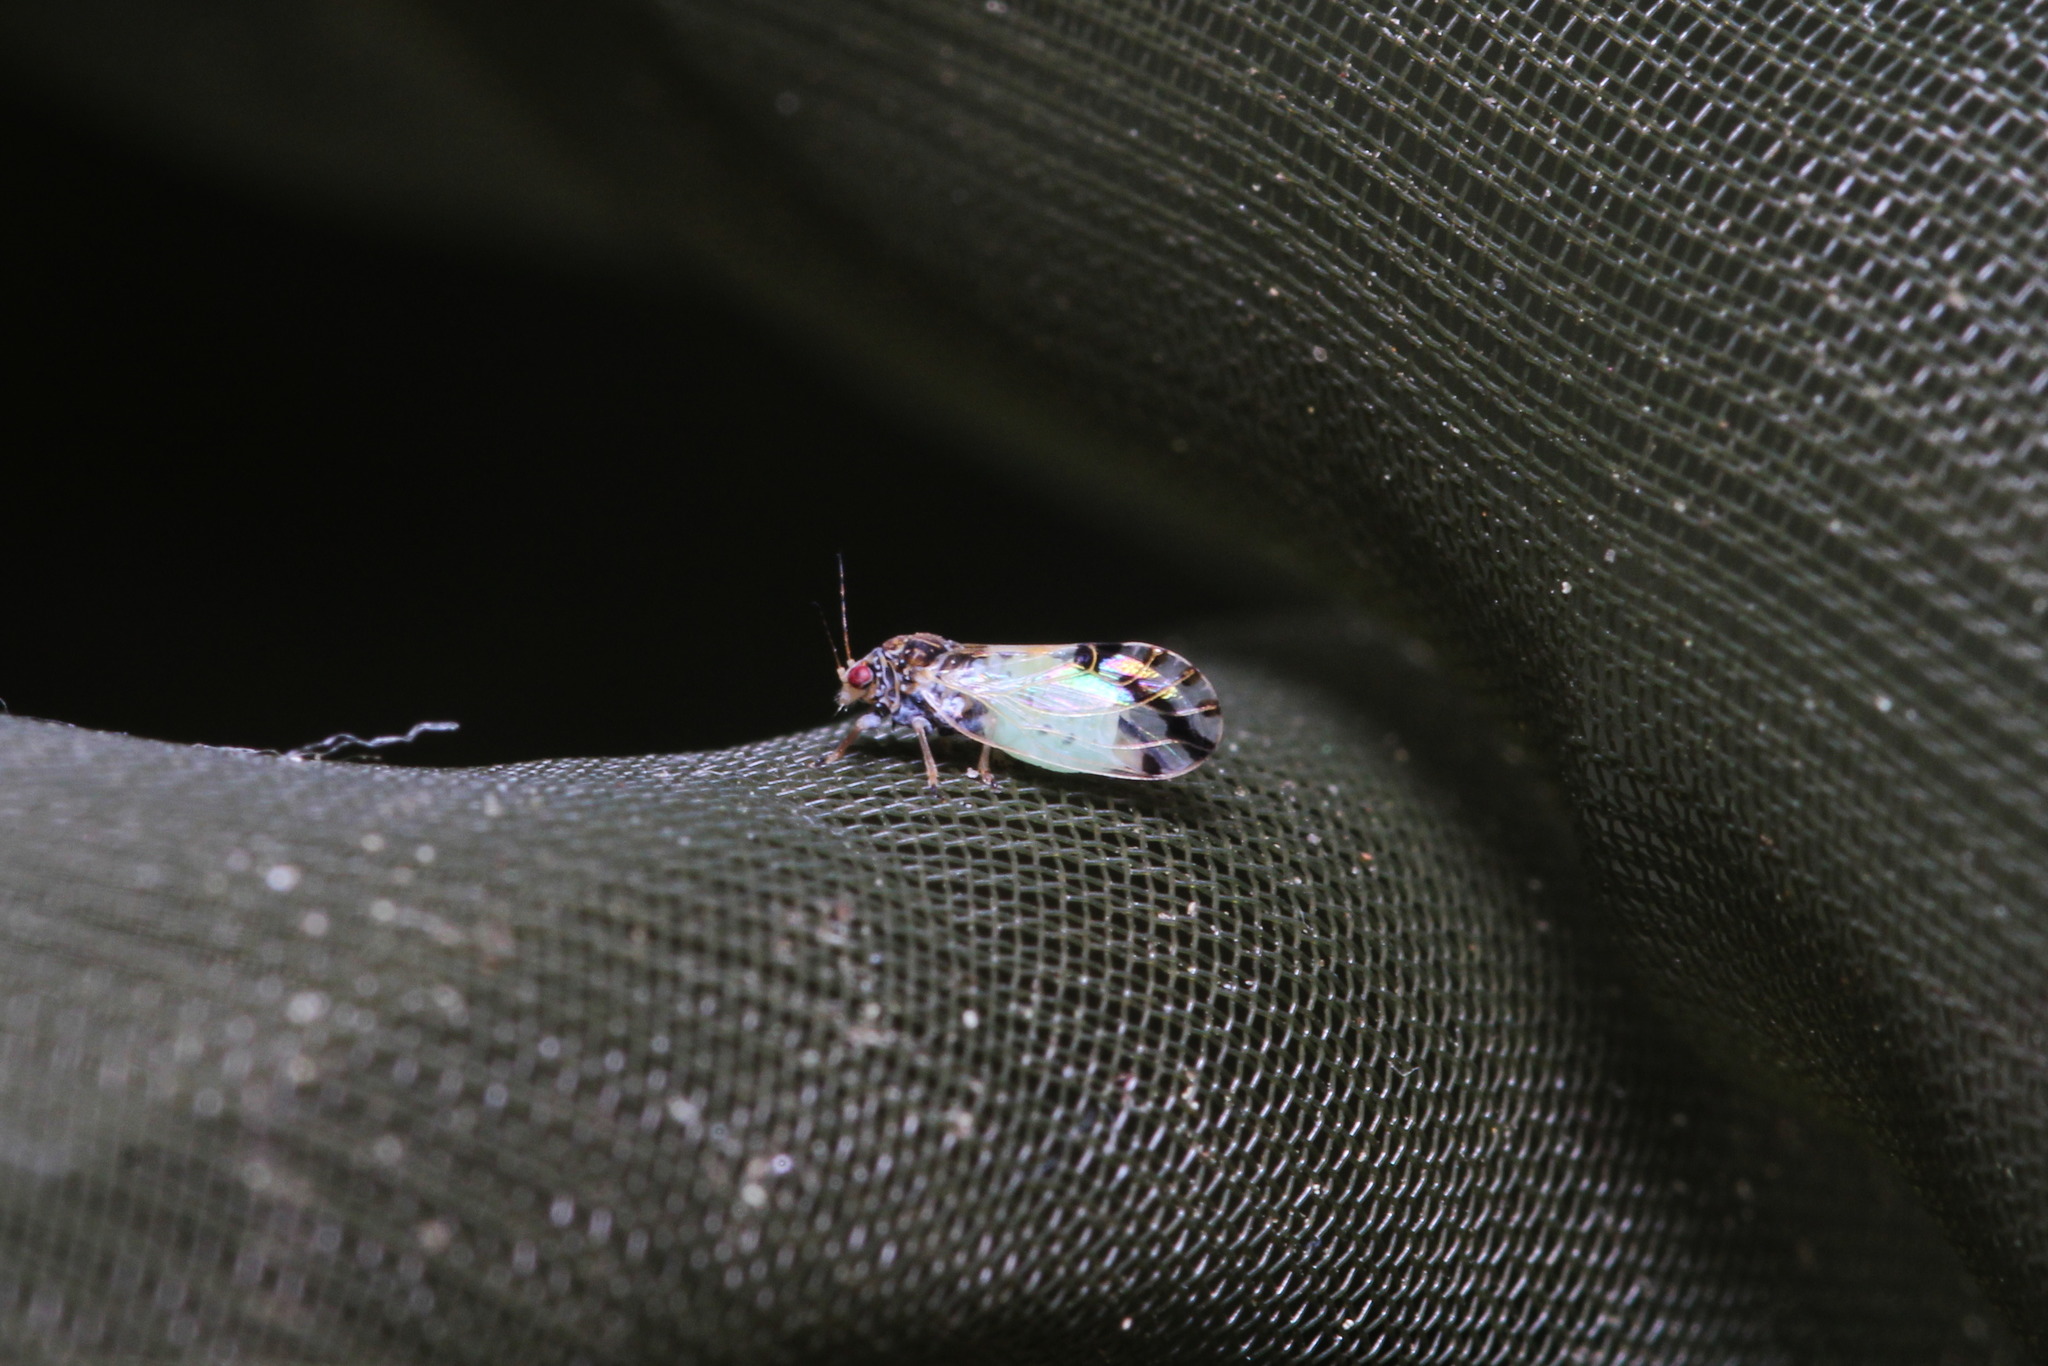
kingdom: Animalia
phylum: Arthropoda
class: Insecta
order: Hemiptera
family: Psyllidae
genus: Cacopsylla
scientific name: Cacopsylla pulchella
